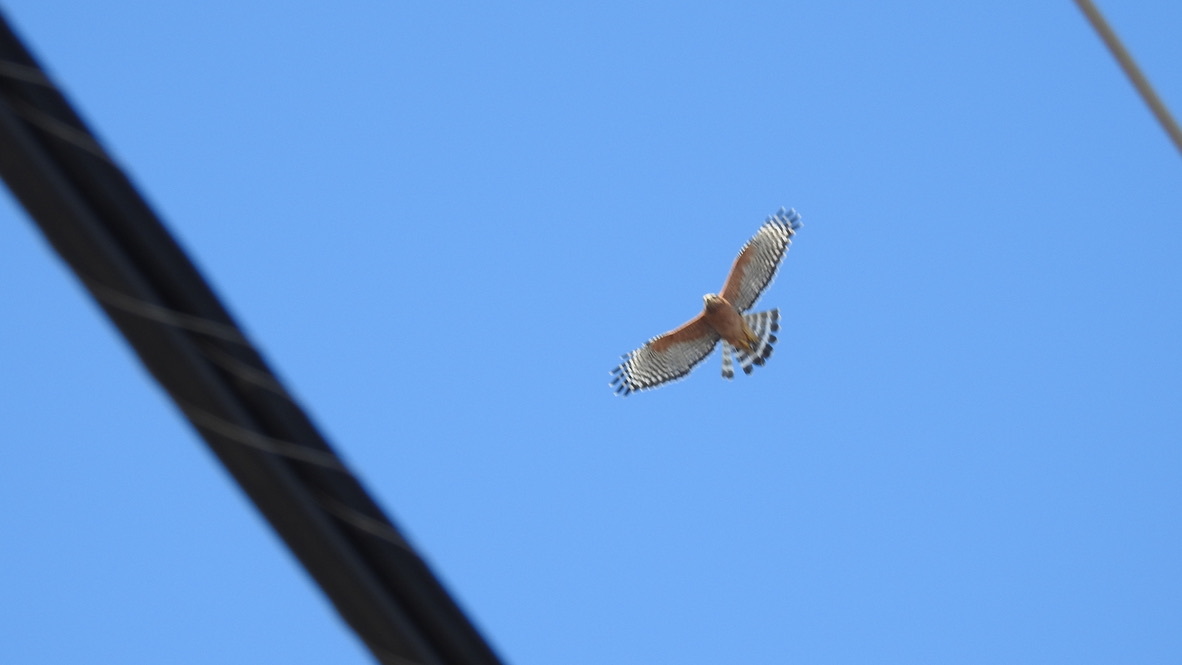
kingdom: Animalia
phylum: Chordata
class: Aves
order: Accipitriformes
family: Accipitridae
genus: Buteo
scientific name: Buteo lineatus
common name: Red-shouldered hawk
